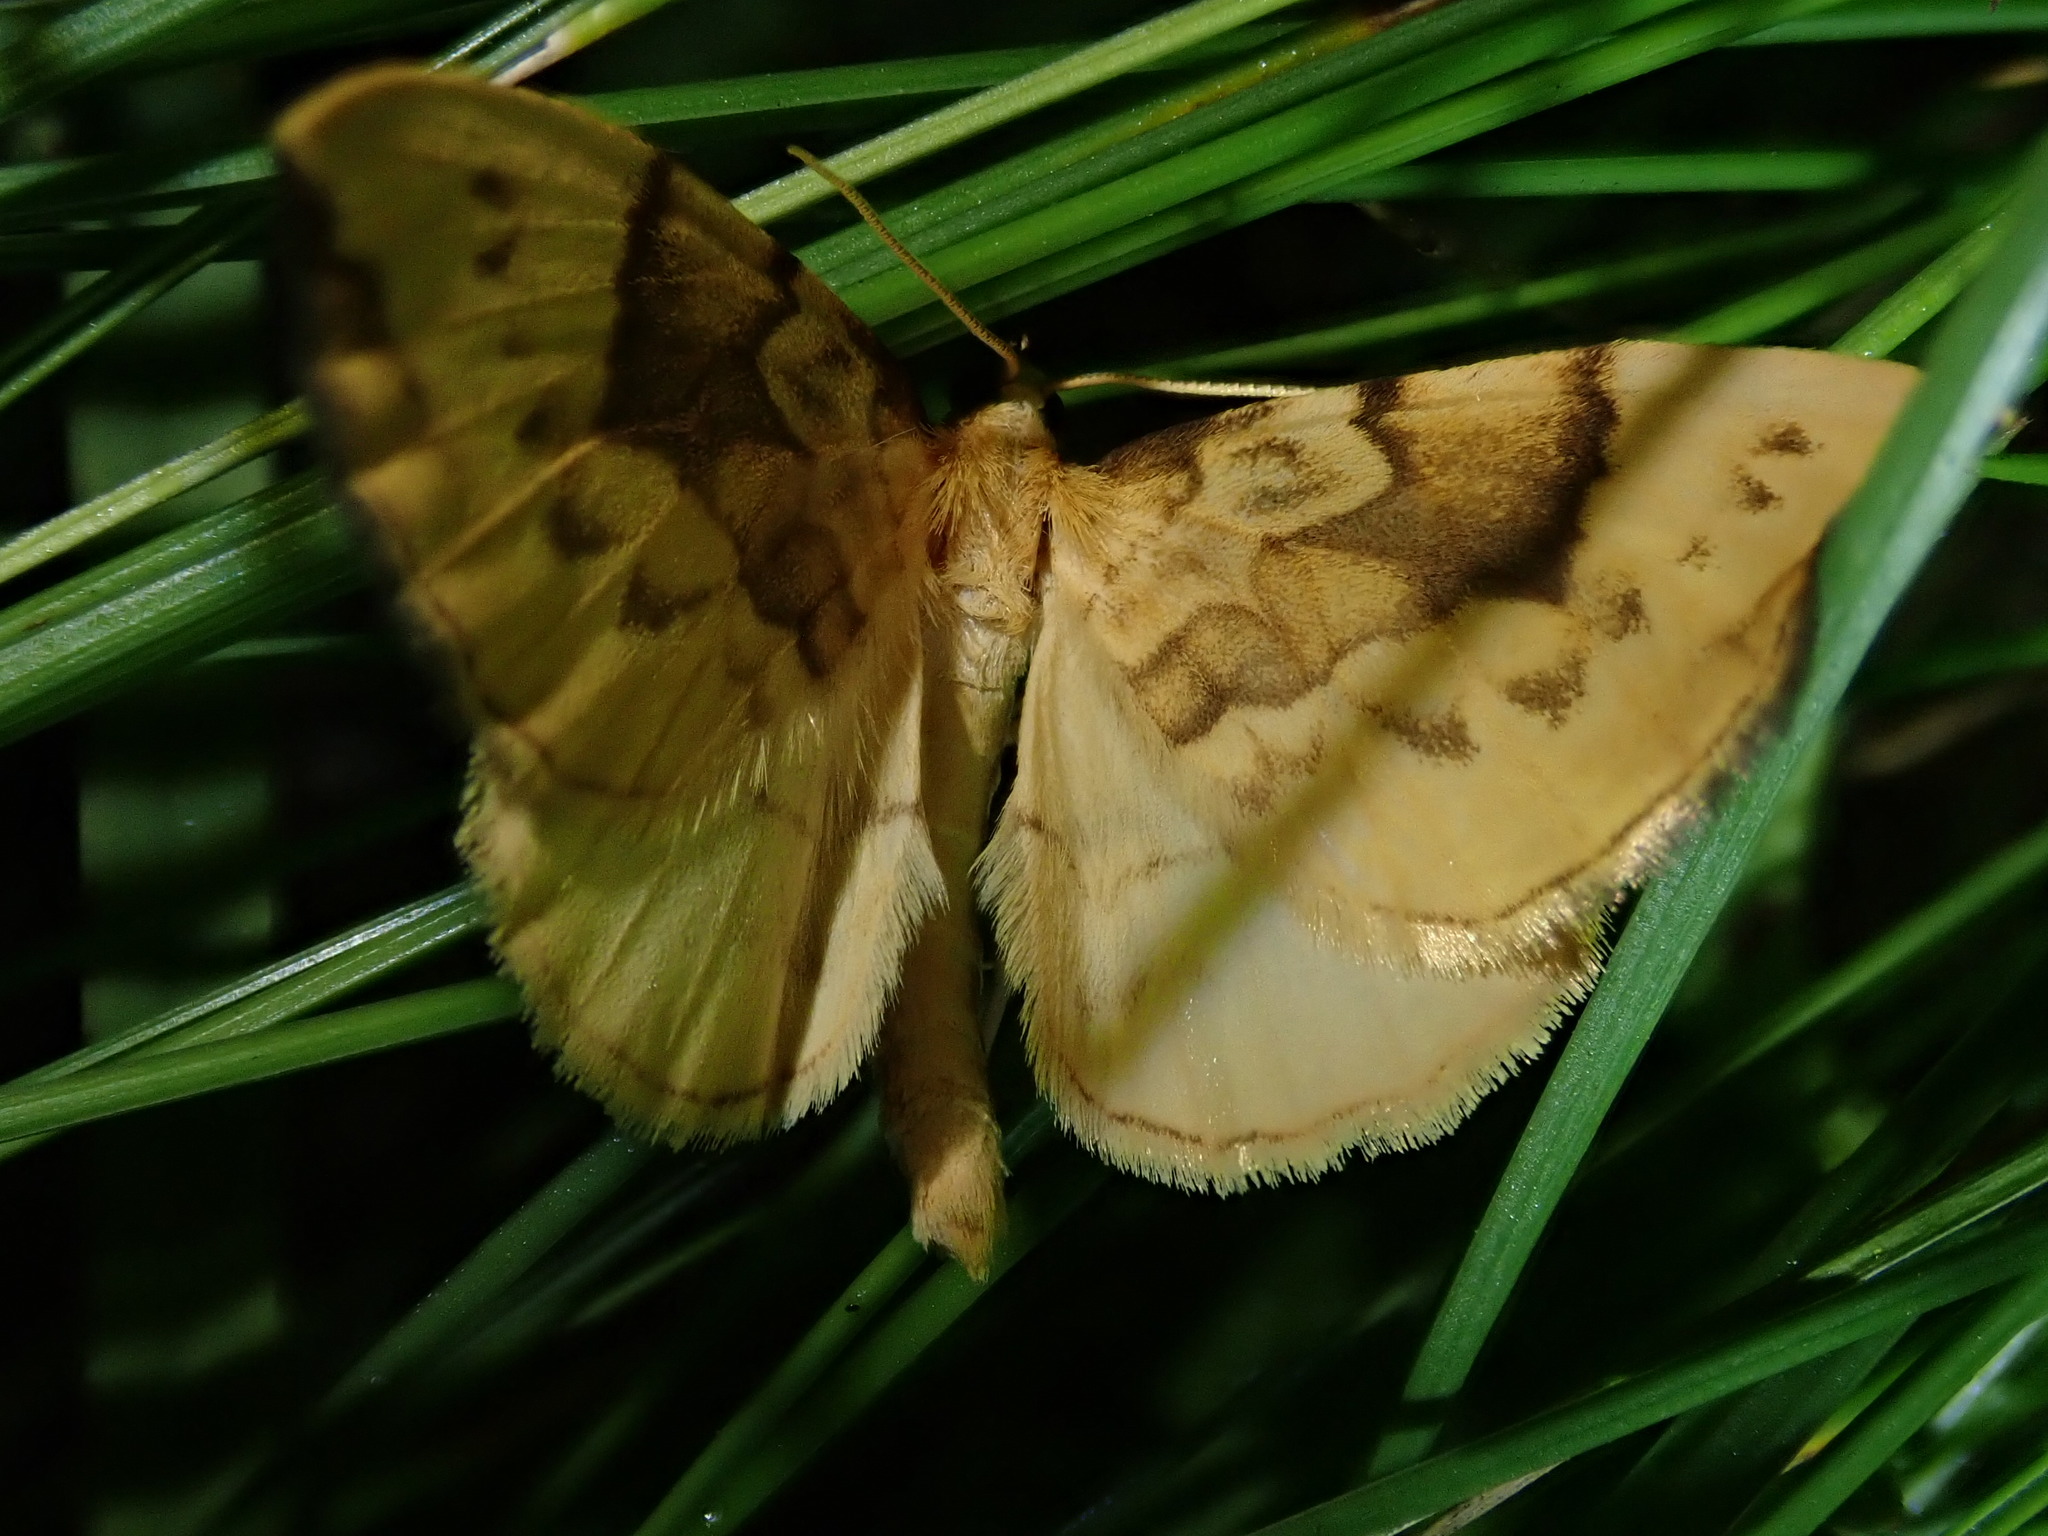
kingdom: Animalia
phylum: Arthropoda
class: Insecta
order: Lepidoptera
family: Geometridae
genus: Eulithis
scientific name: Eulithis pyraliata
